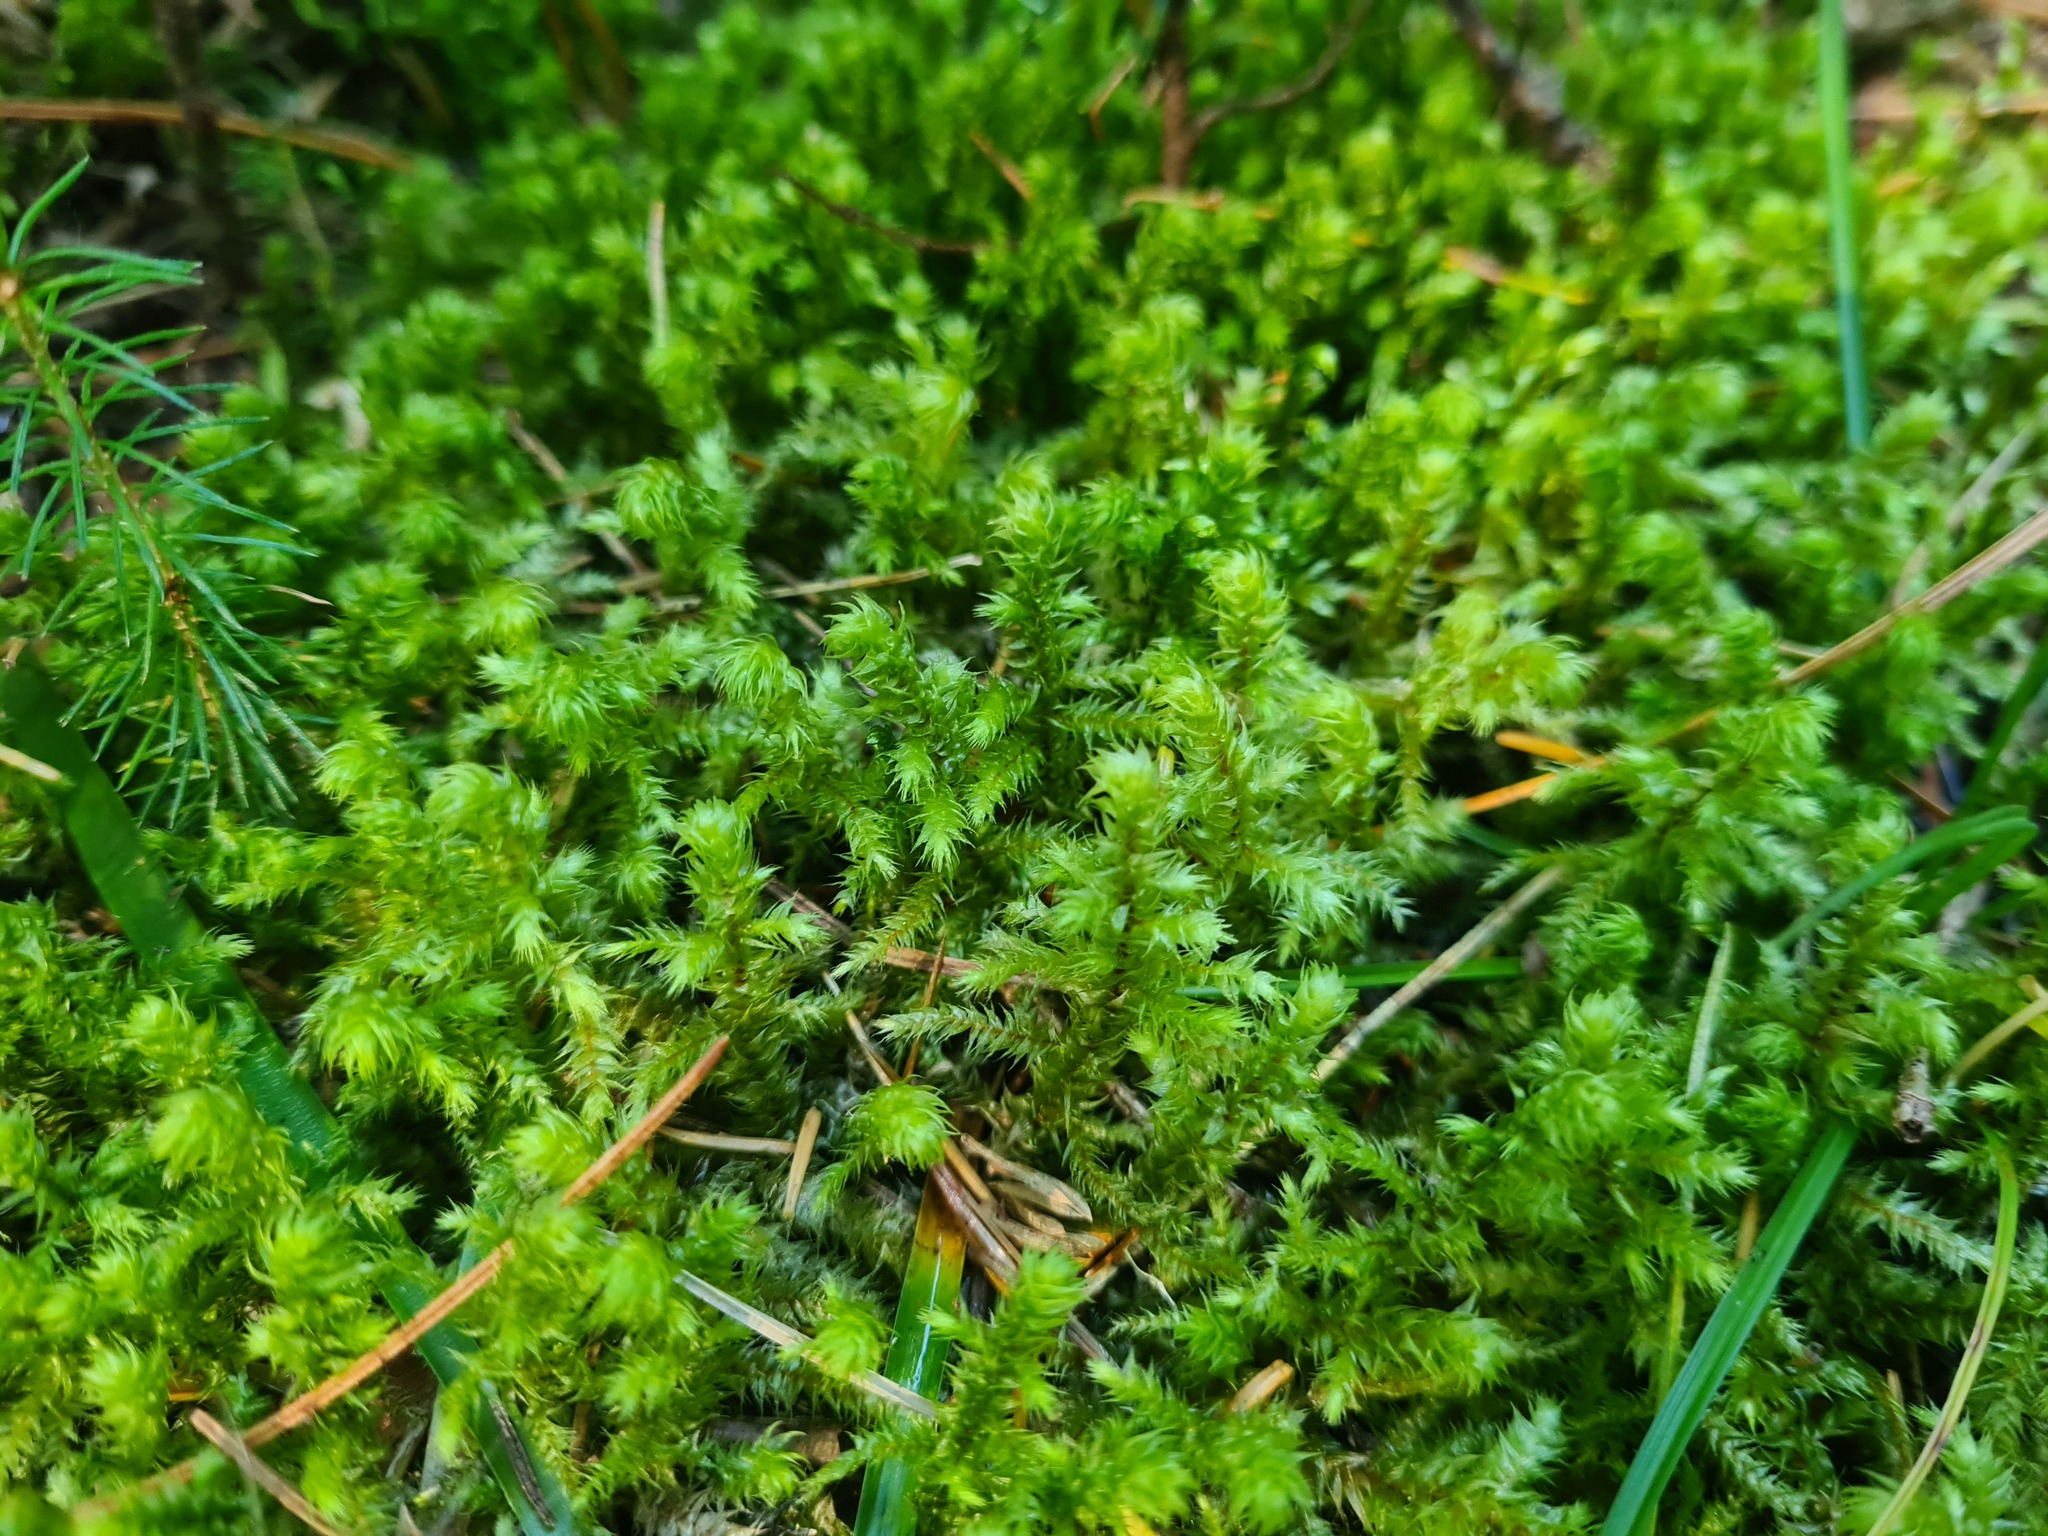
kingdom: Plantae
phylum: Bryophyta
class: Bryopsida
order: Hypnales
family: Hylocomiaceae
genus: Hylocomiadelphus
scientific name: Hylocomiadelphus triquetrus
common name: Rough goose neck moss
